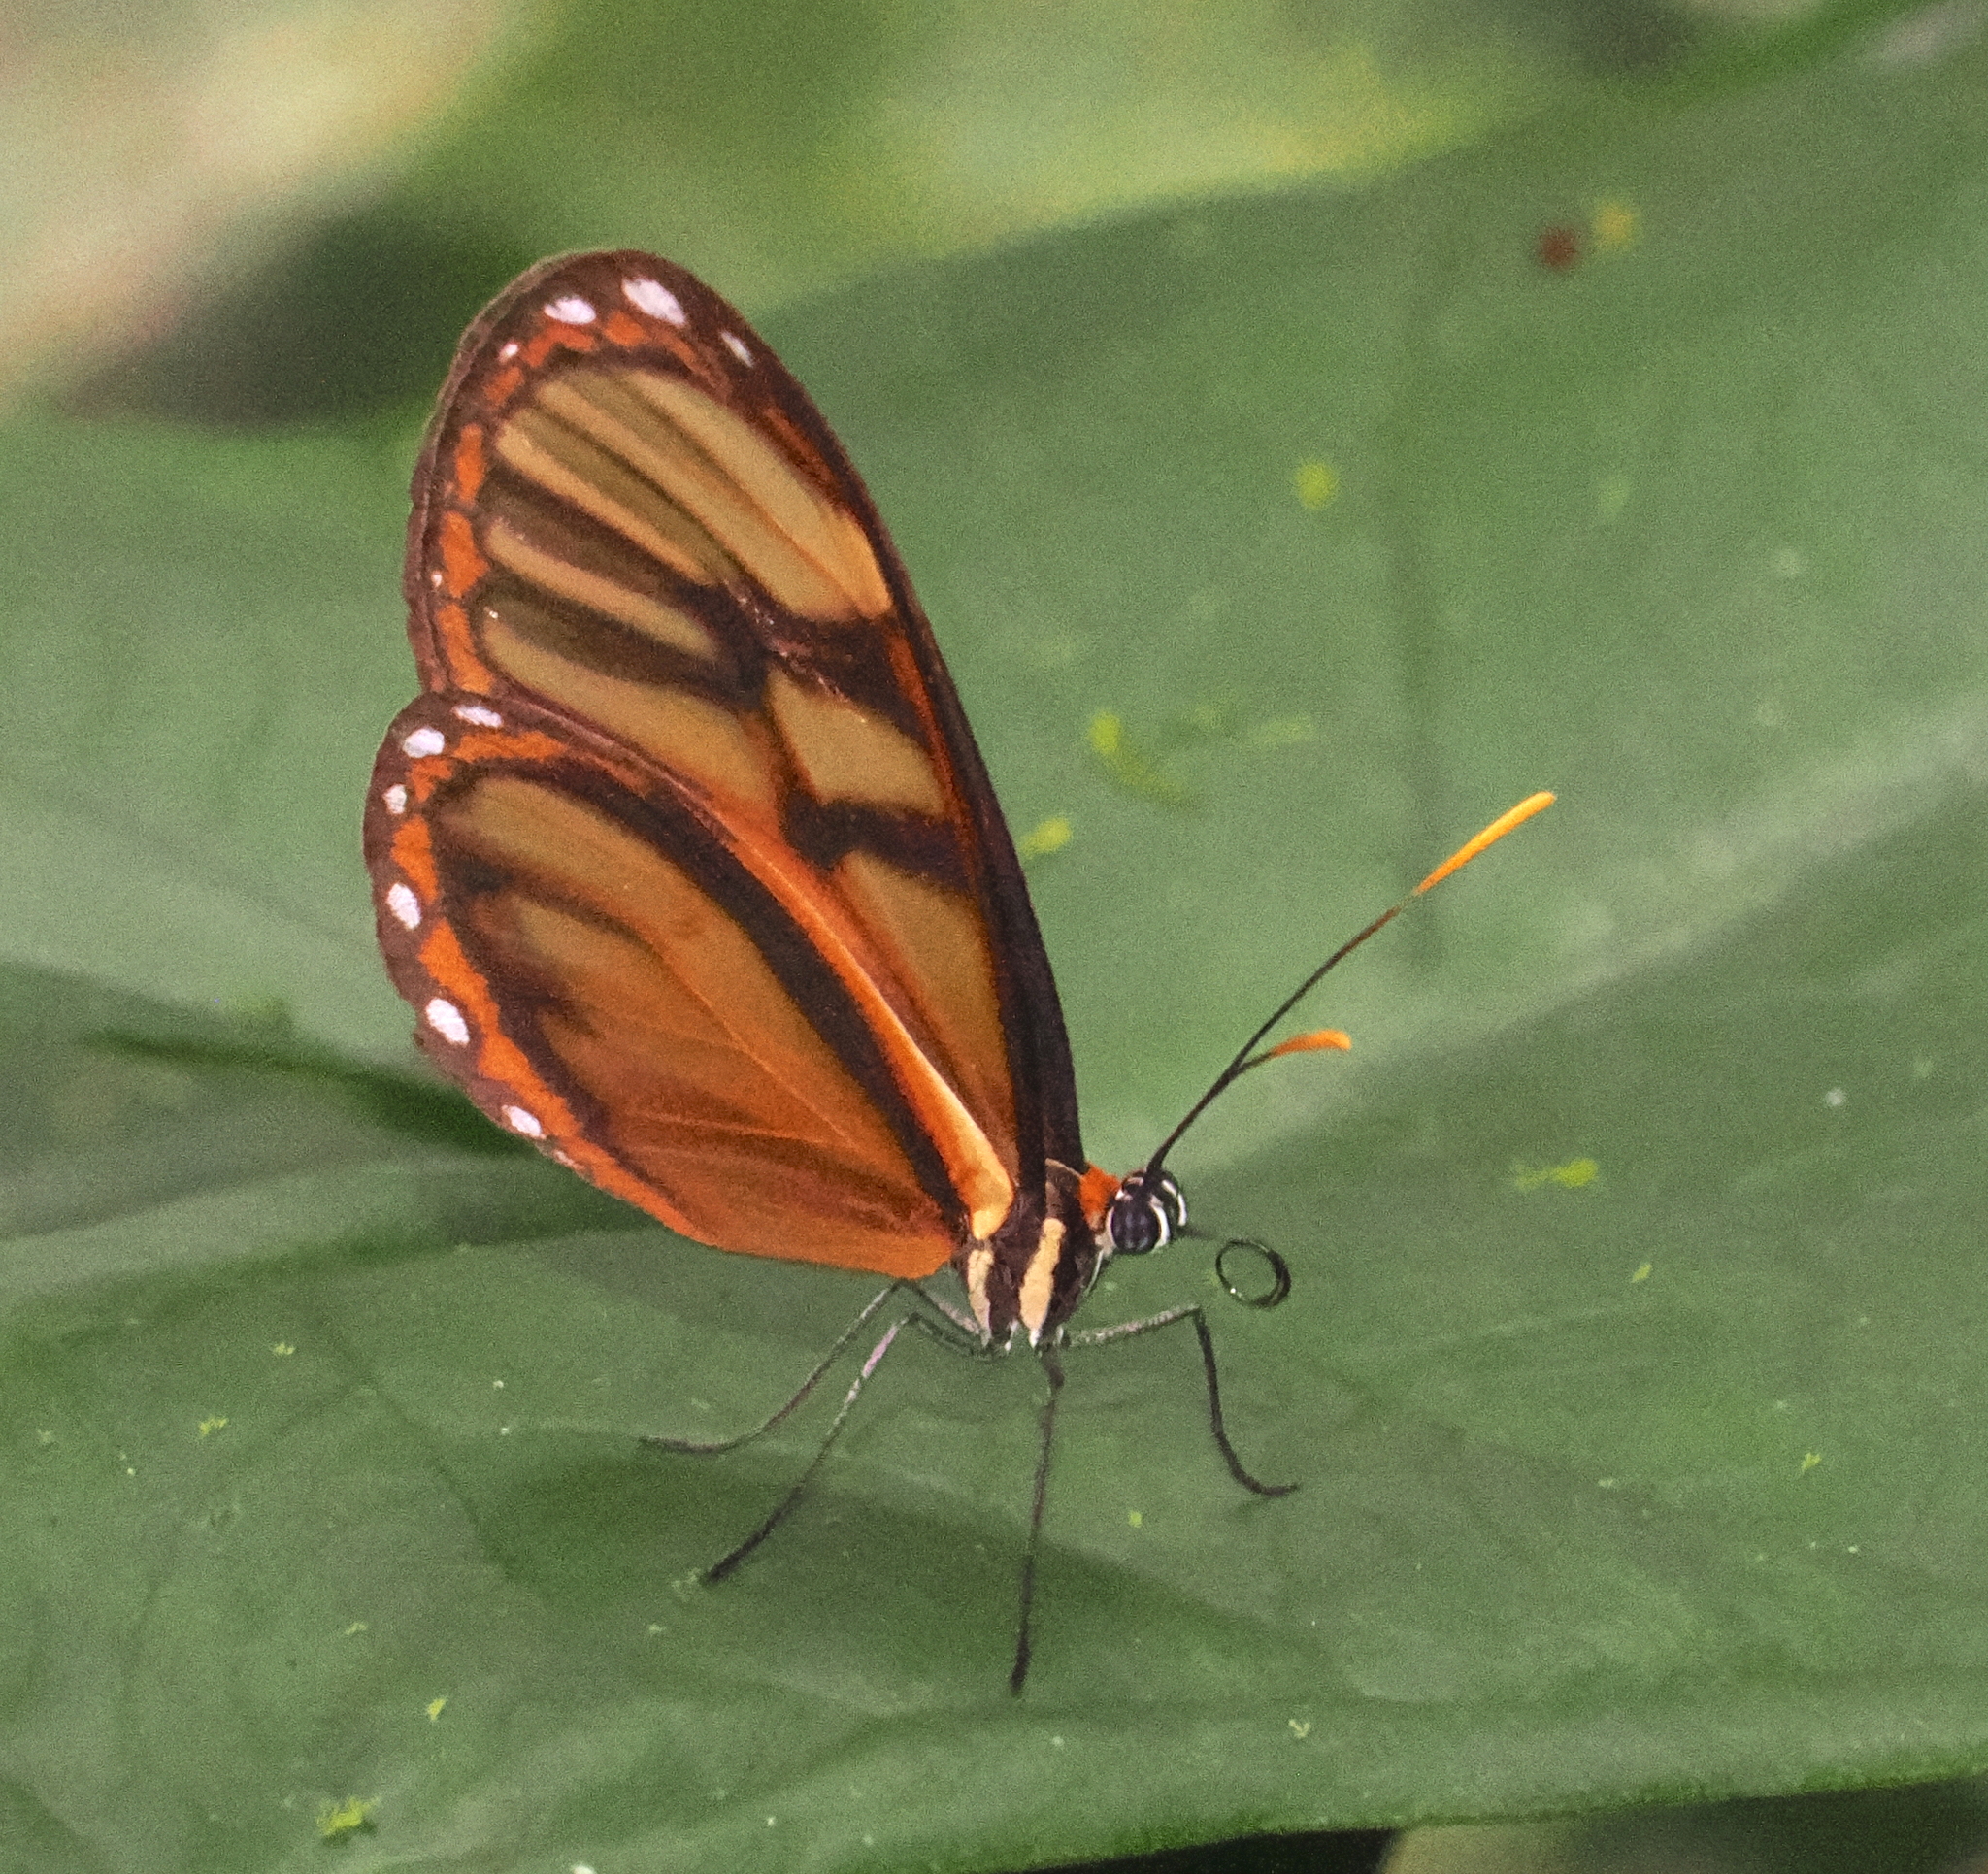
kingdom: Animalia
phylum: Arthropoda
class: Insecta
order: Lepidoptera
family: Nymphalidae
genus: Ithomia
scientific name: Ithomia iphianassa
